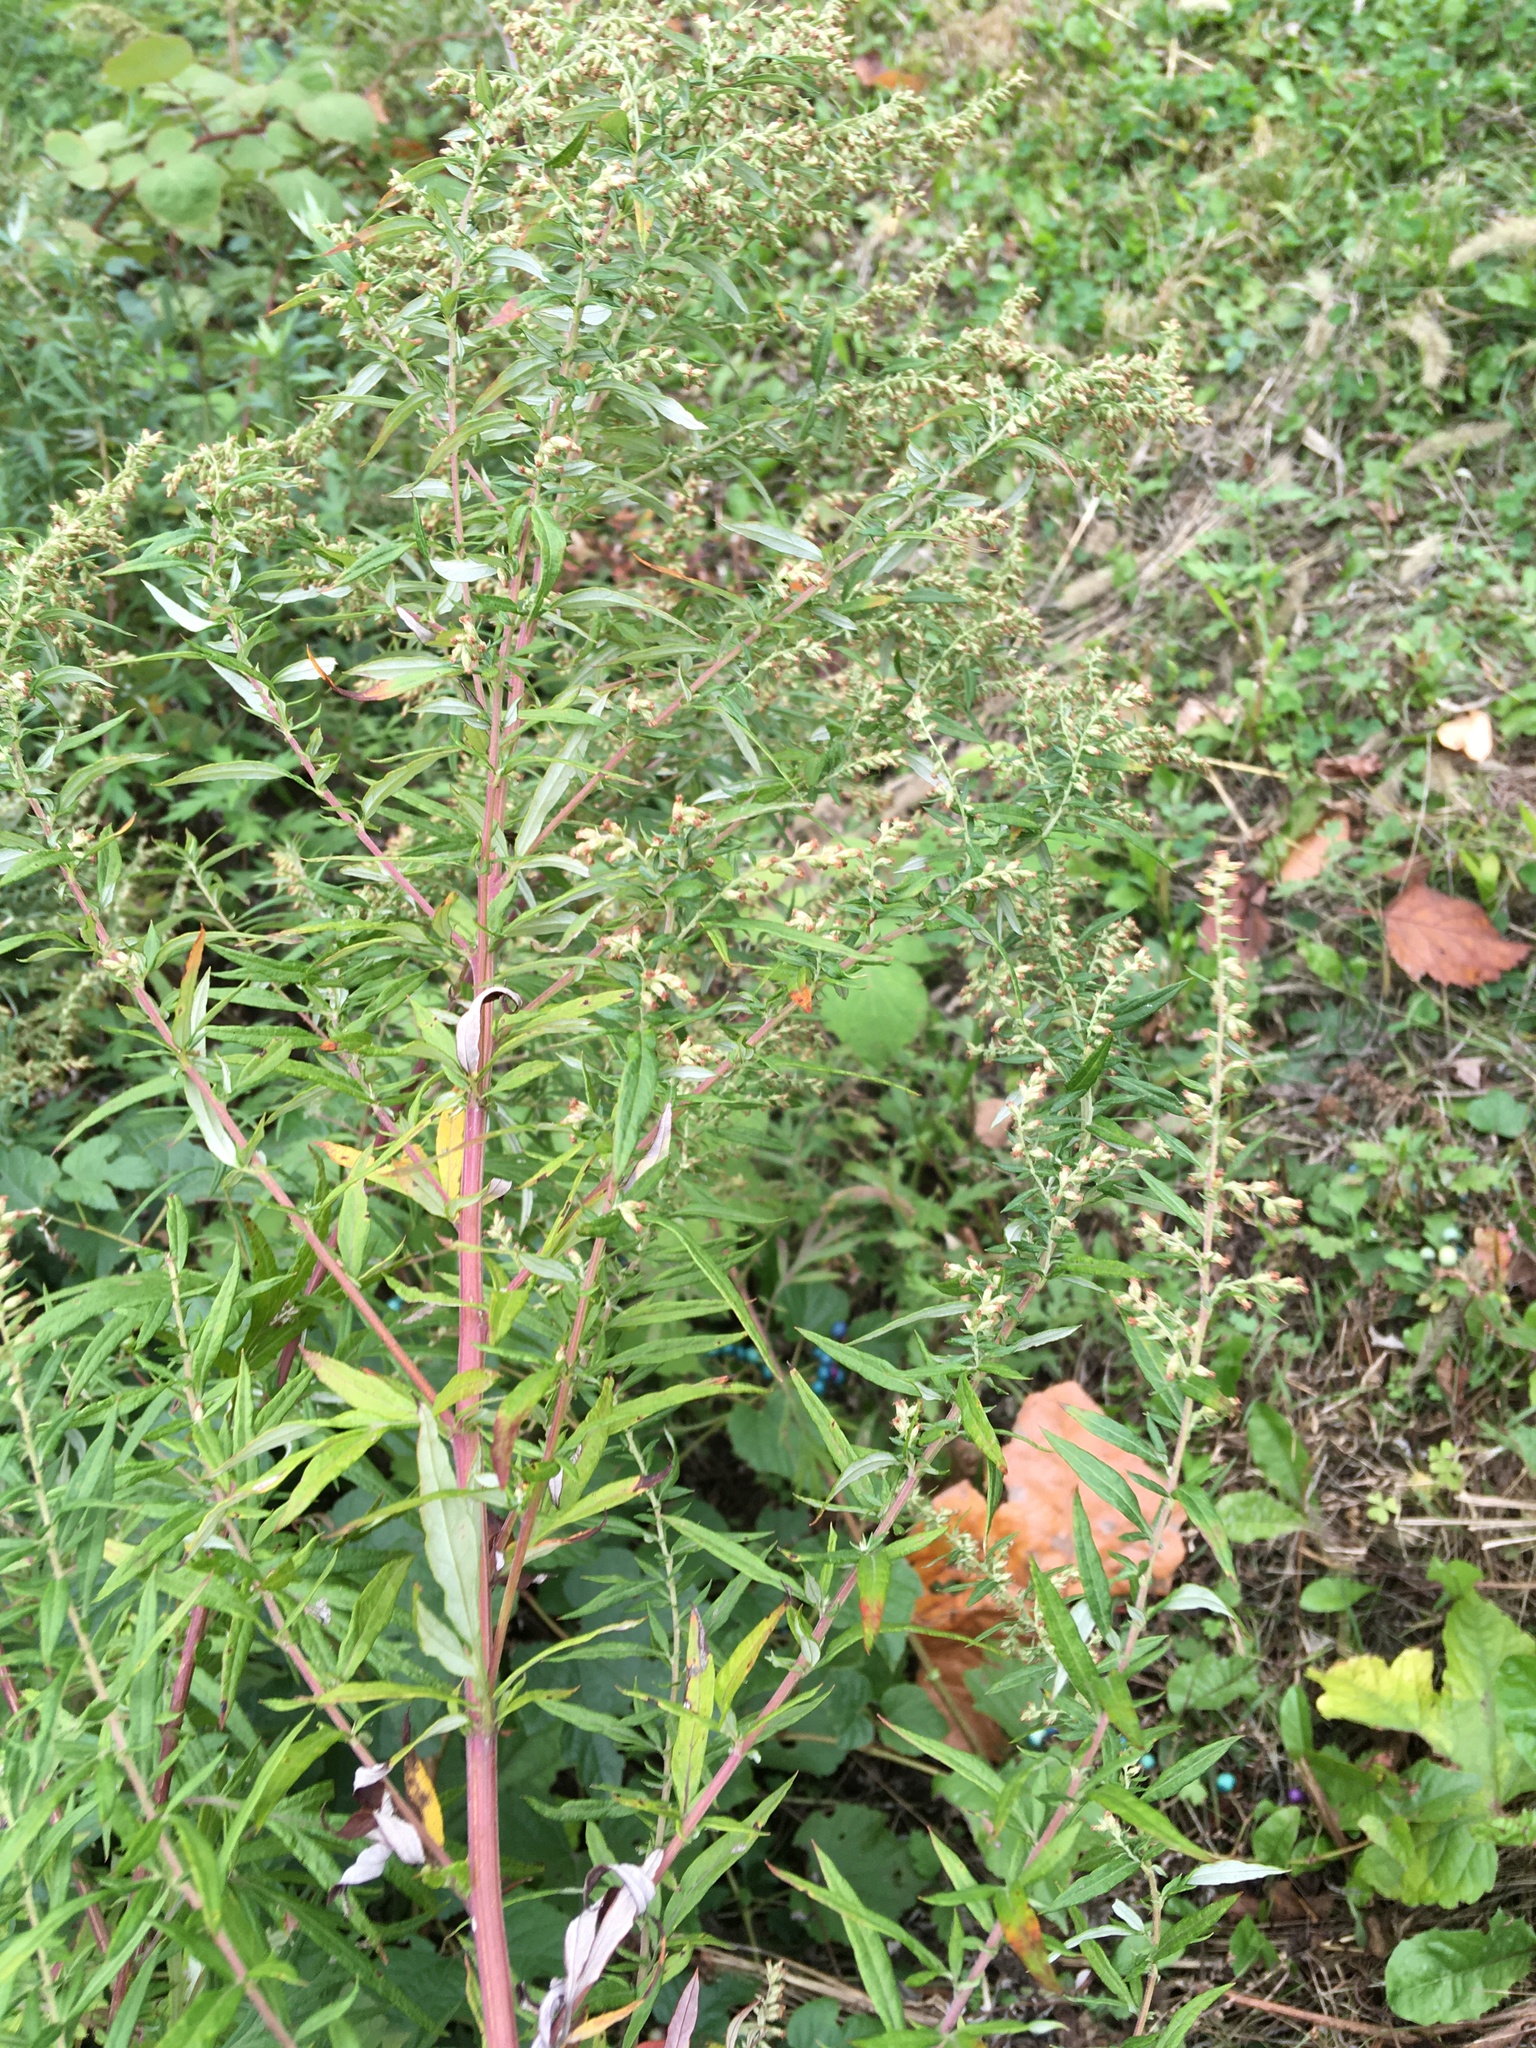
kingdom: Plantae
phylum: Tracheophyta
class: Magnoliopsida
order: Asterales
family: Asteraceae
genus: Artemisia
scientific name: Artemisia vulgaris
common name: Mugwort
